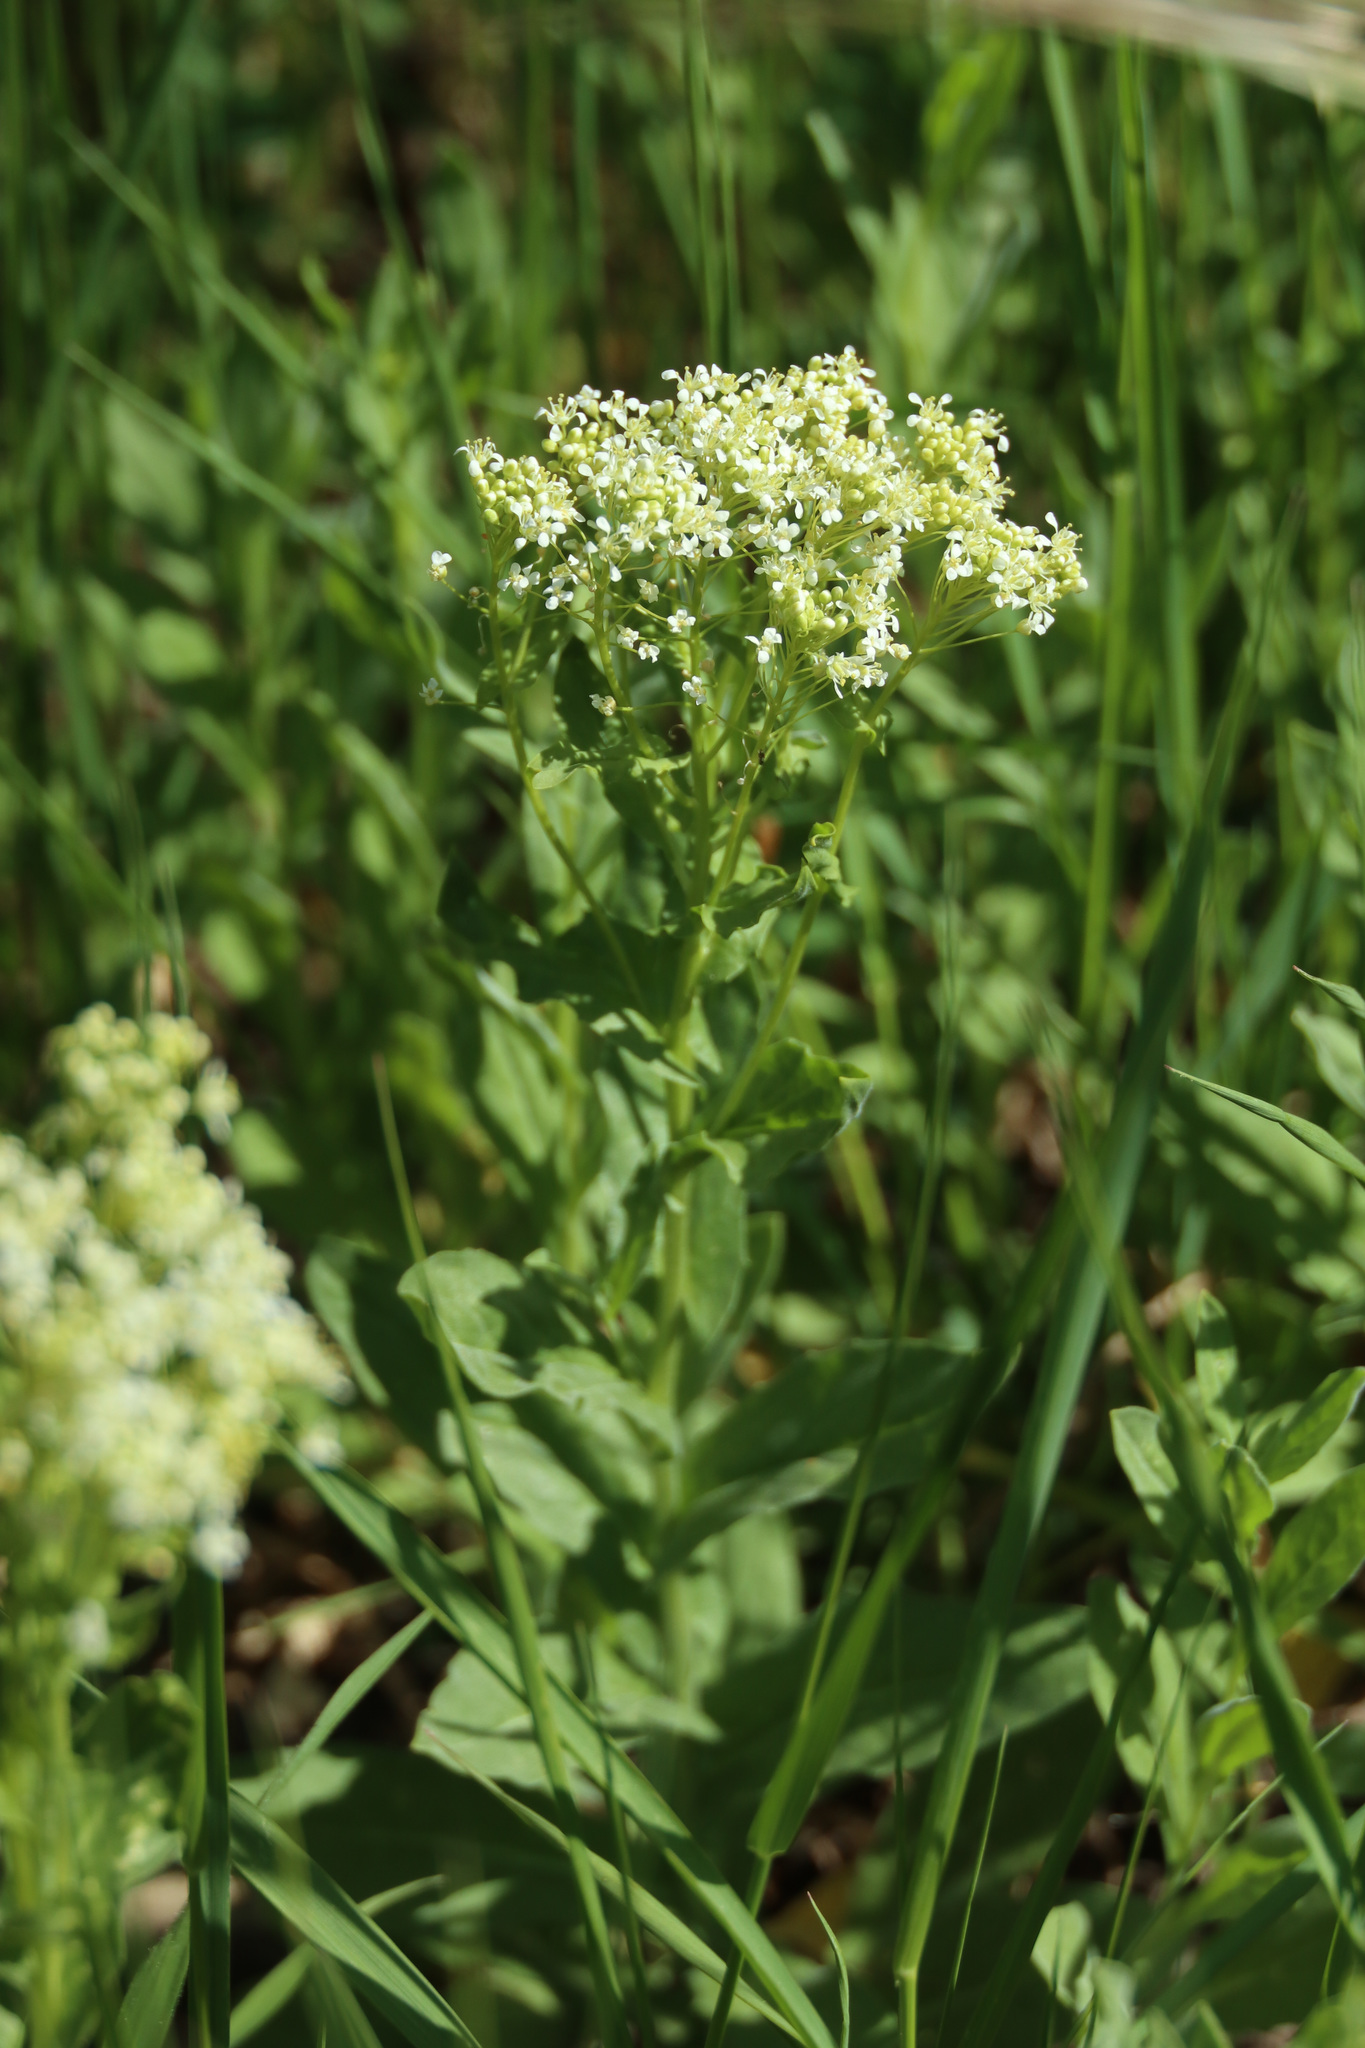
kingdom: Plantae
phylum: Tracheophyta
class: Magnoliopsida
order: Brassicales
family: Brassicaceae
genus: Lepidium
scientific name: Lepidium campestre
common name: Field pepperwort
